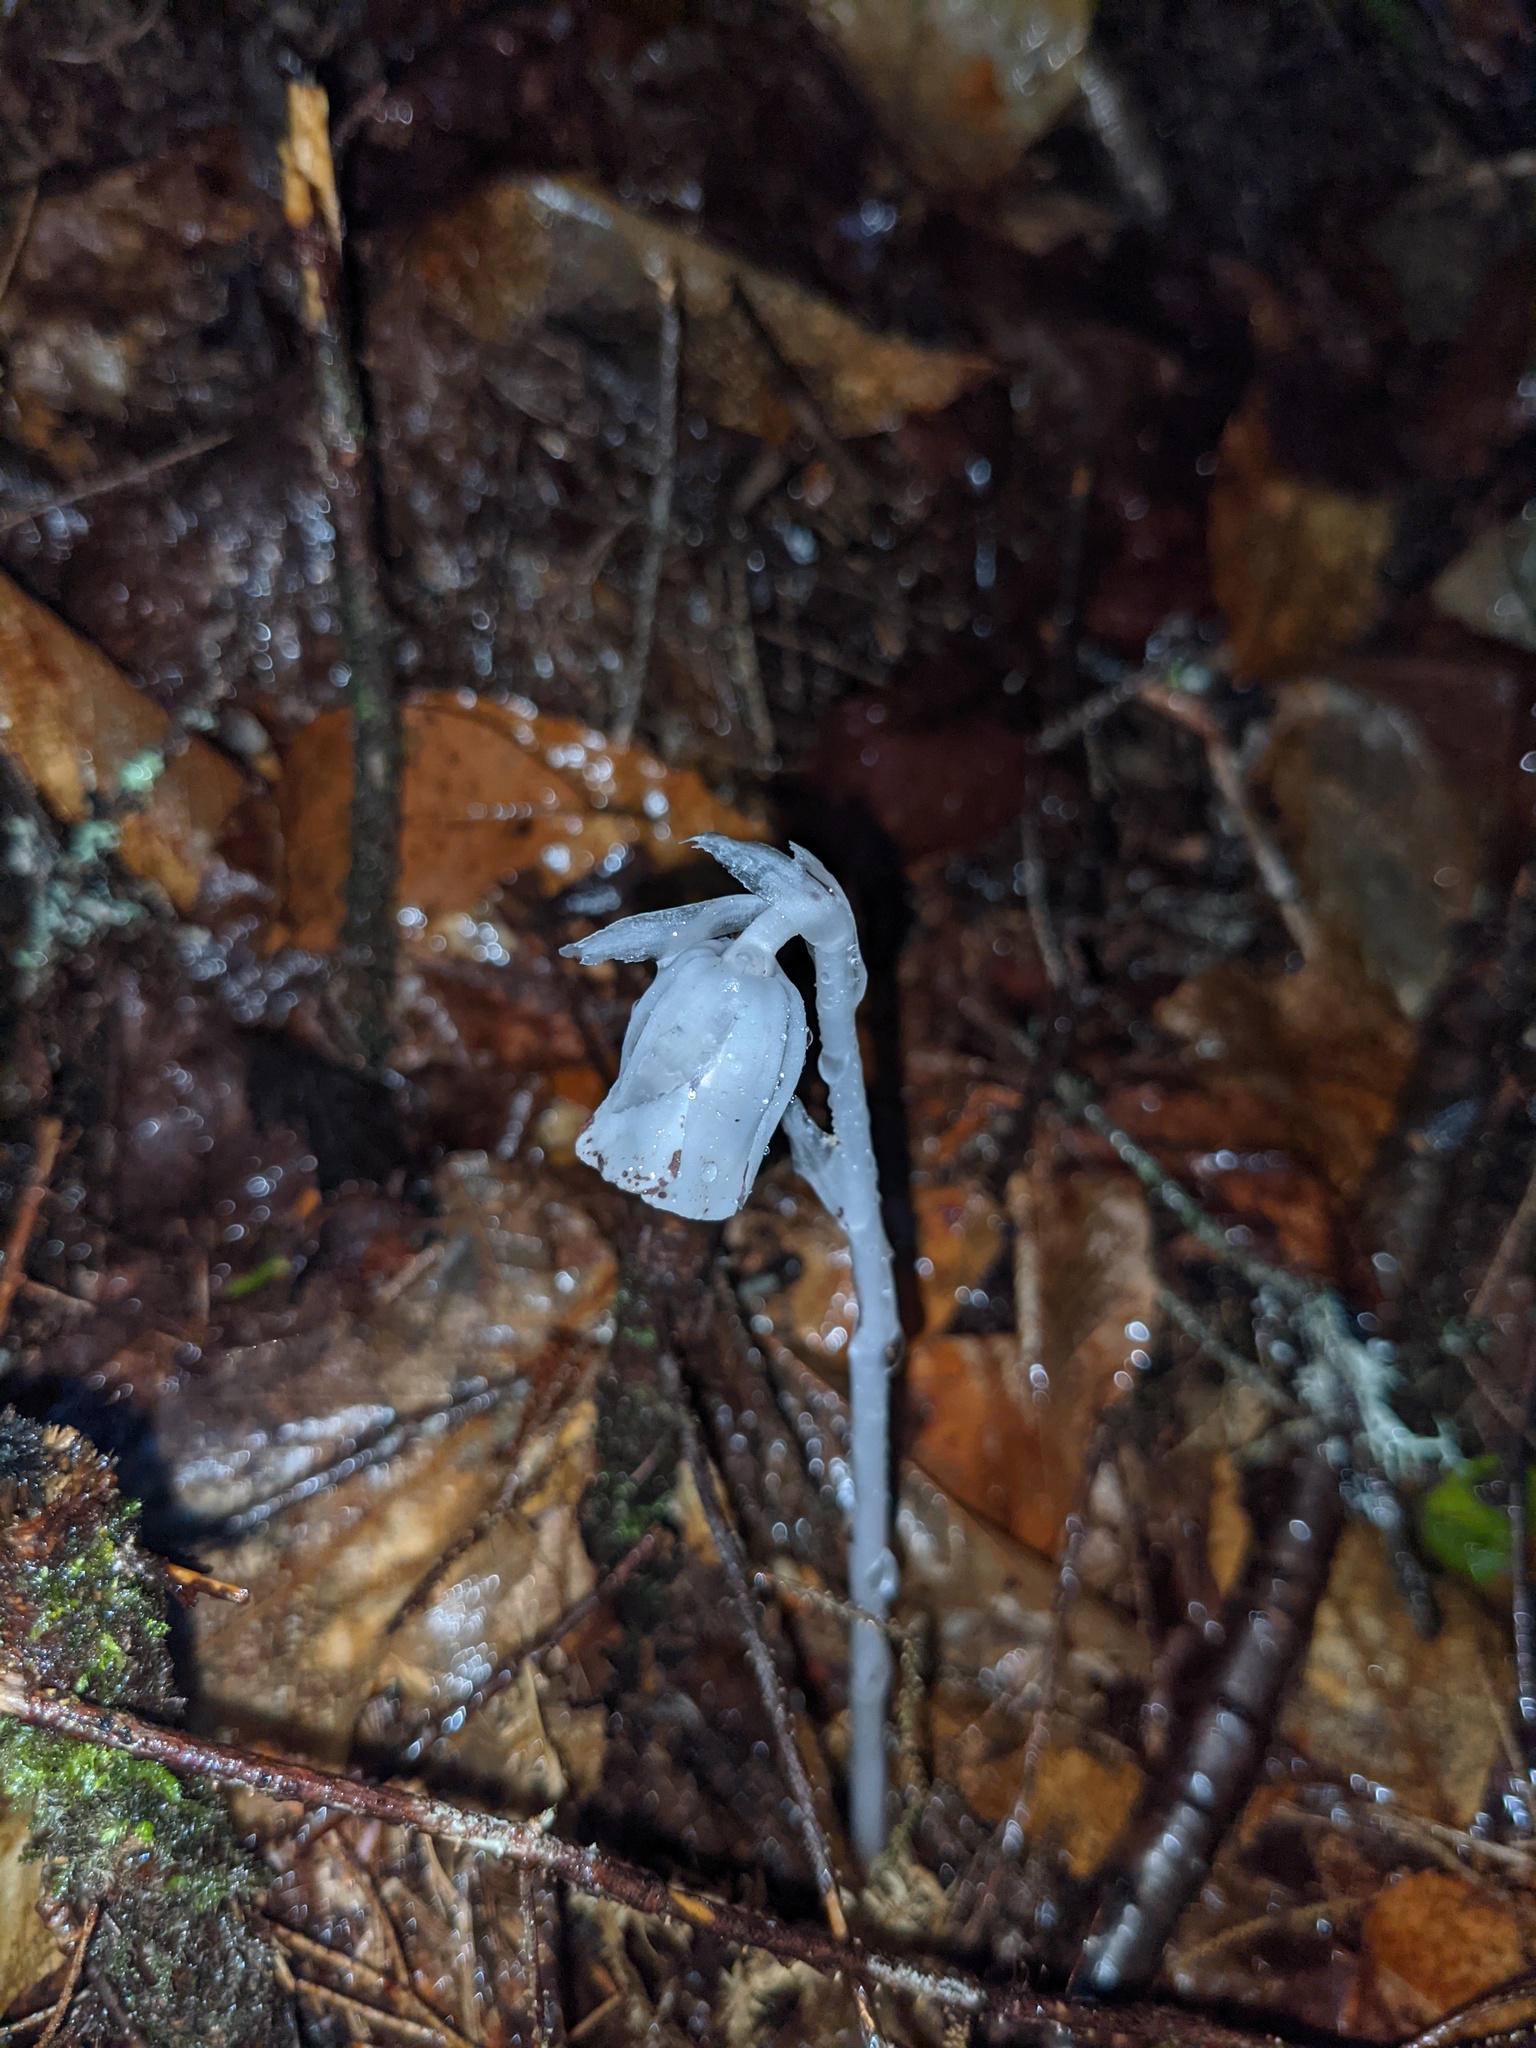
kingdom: Plantae
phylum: Tracheophyta
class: Magnoliopsida
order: Ericales
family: Ericaceae
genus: Monotropa
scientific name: Monotropa uniflora
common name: Convulsion root
